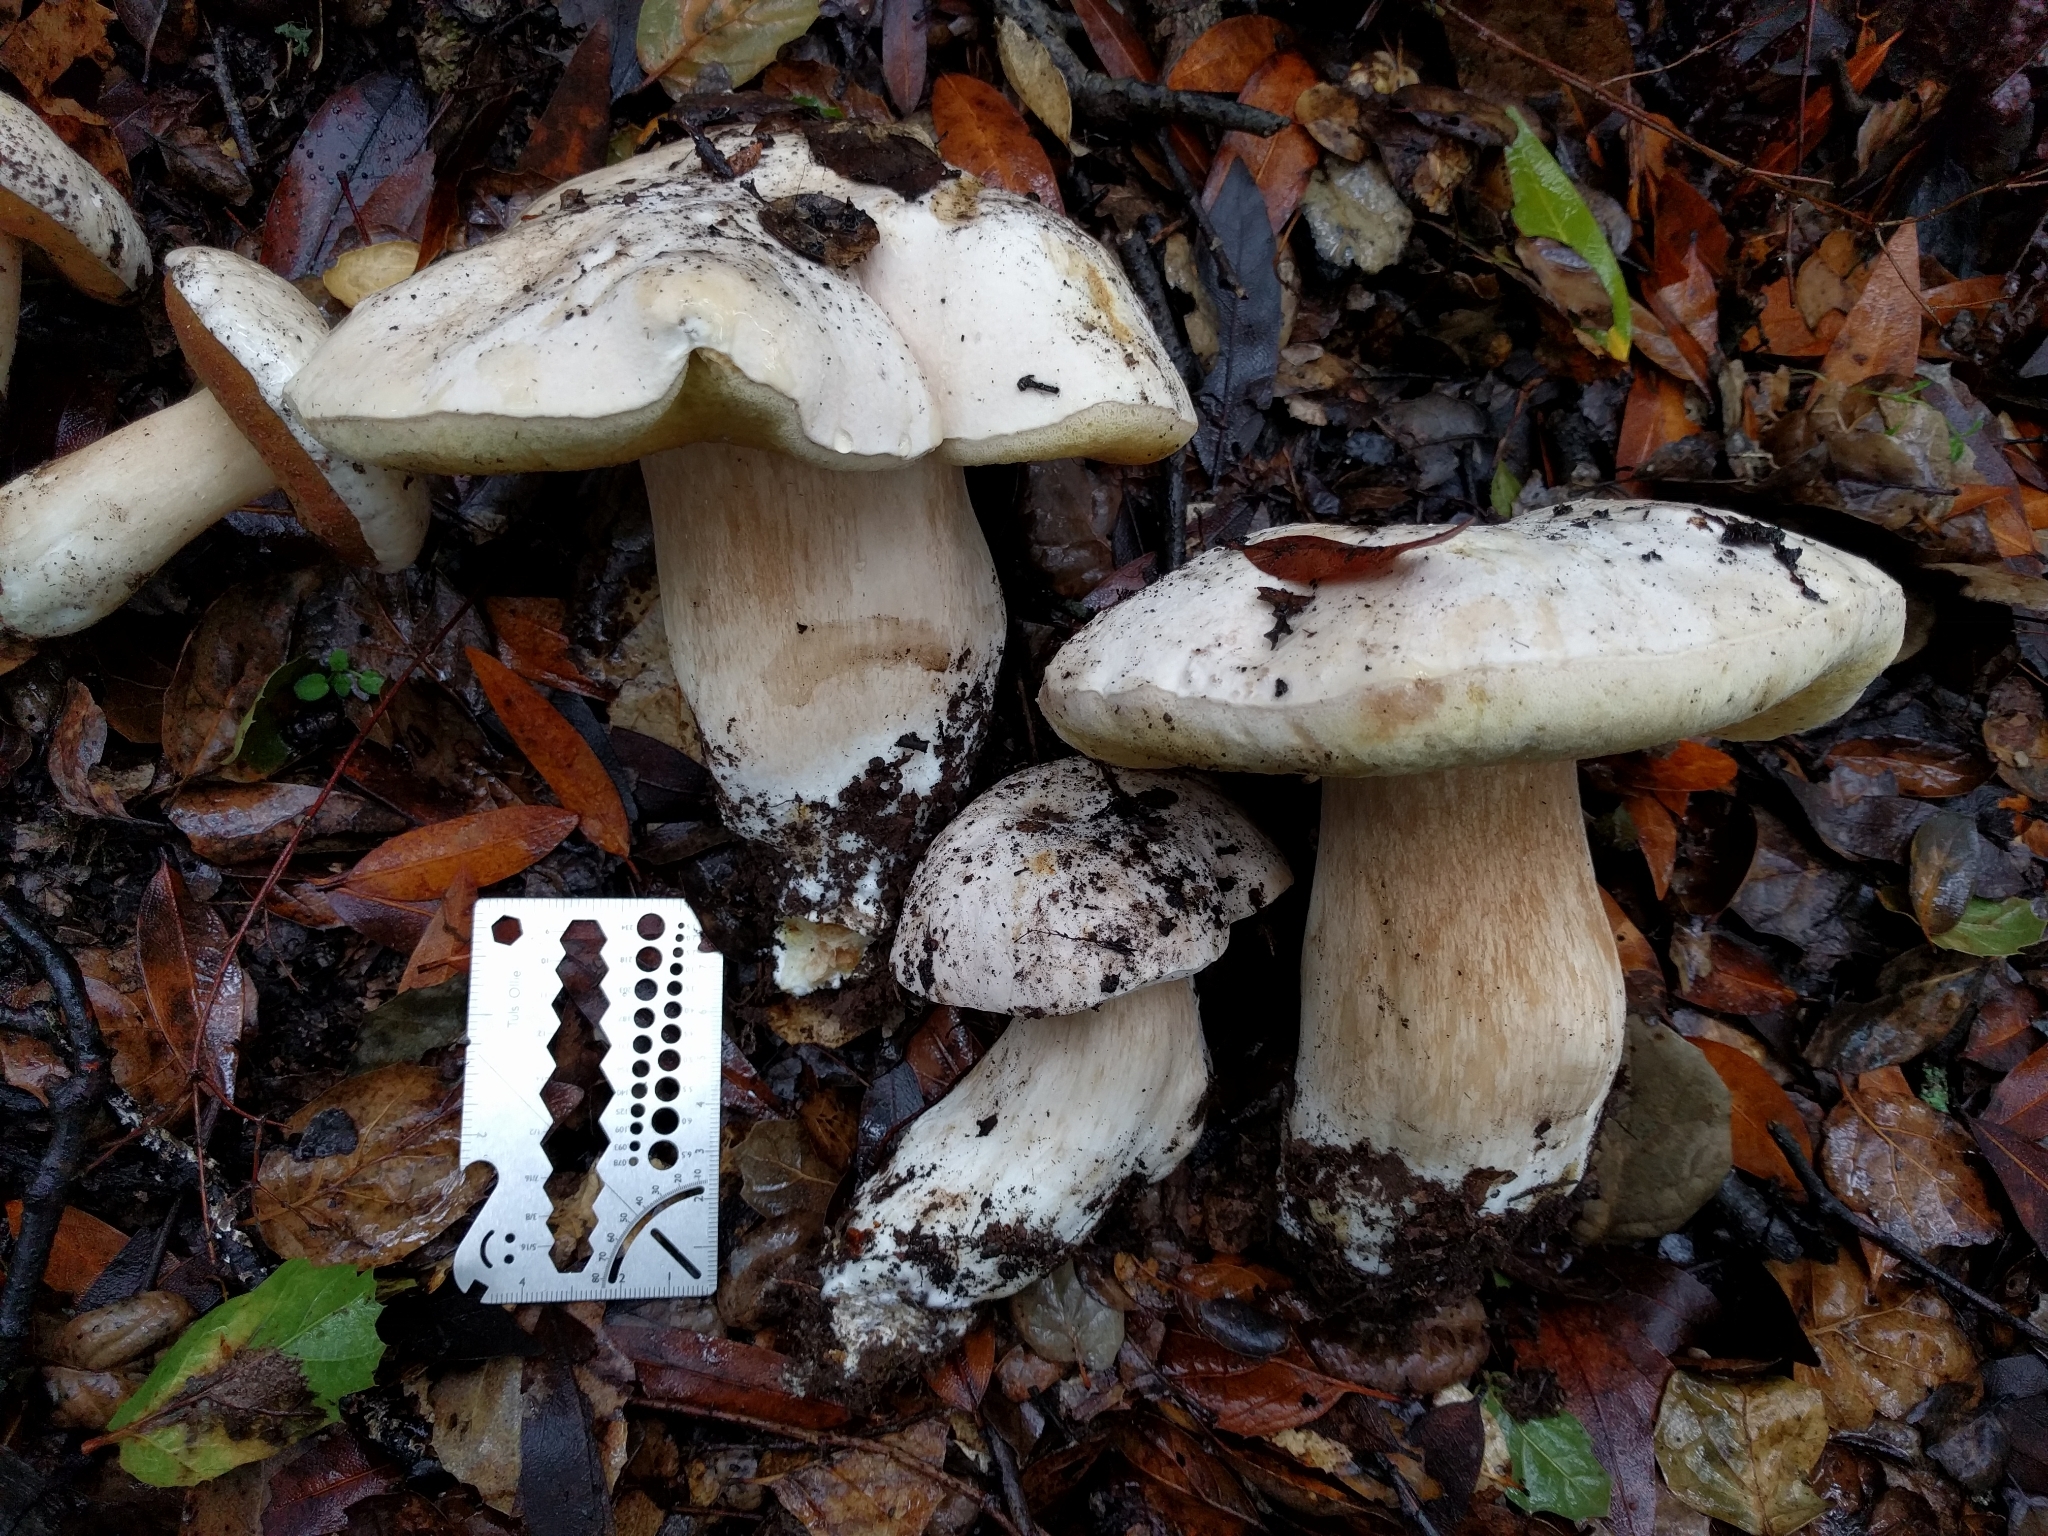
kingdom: Fungi
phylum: Basidiomycota
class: Agaricomycetes
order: Boletales
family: Boletaceae
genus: Boletus
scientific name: Boletus barrowsii
